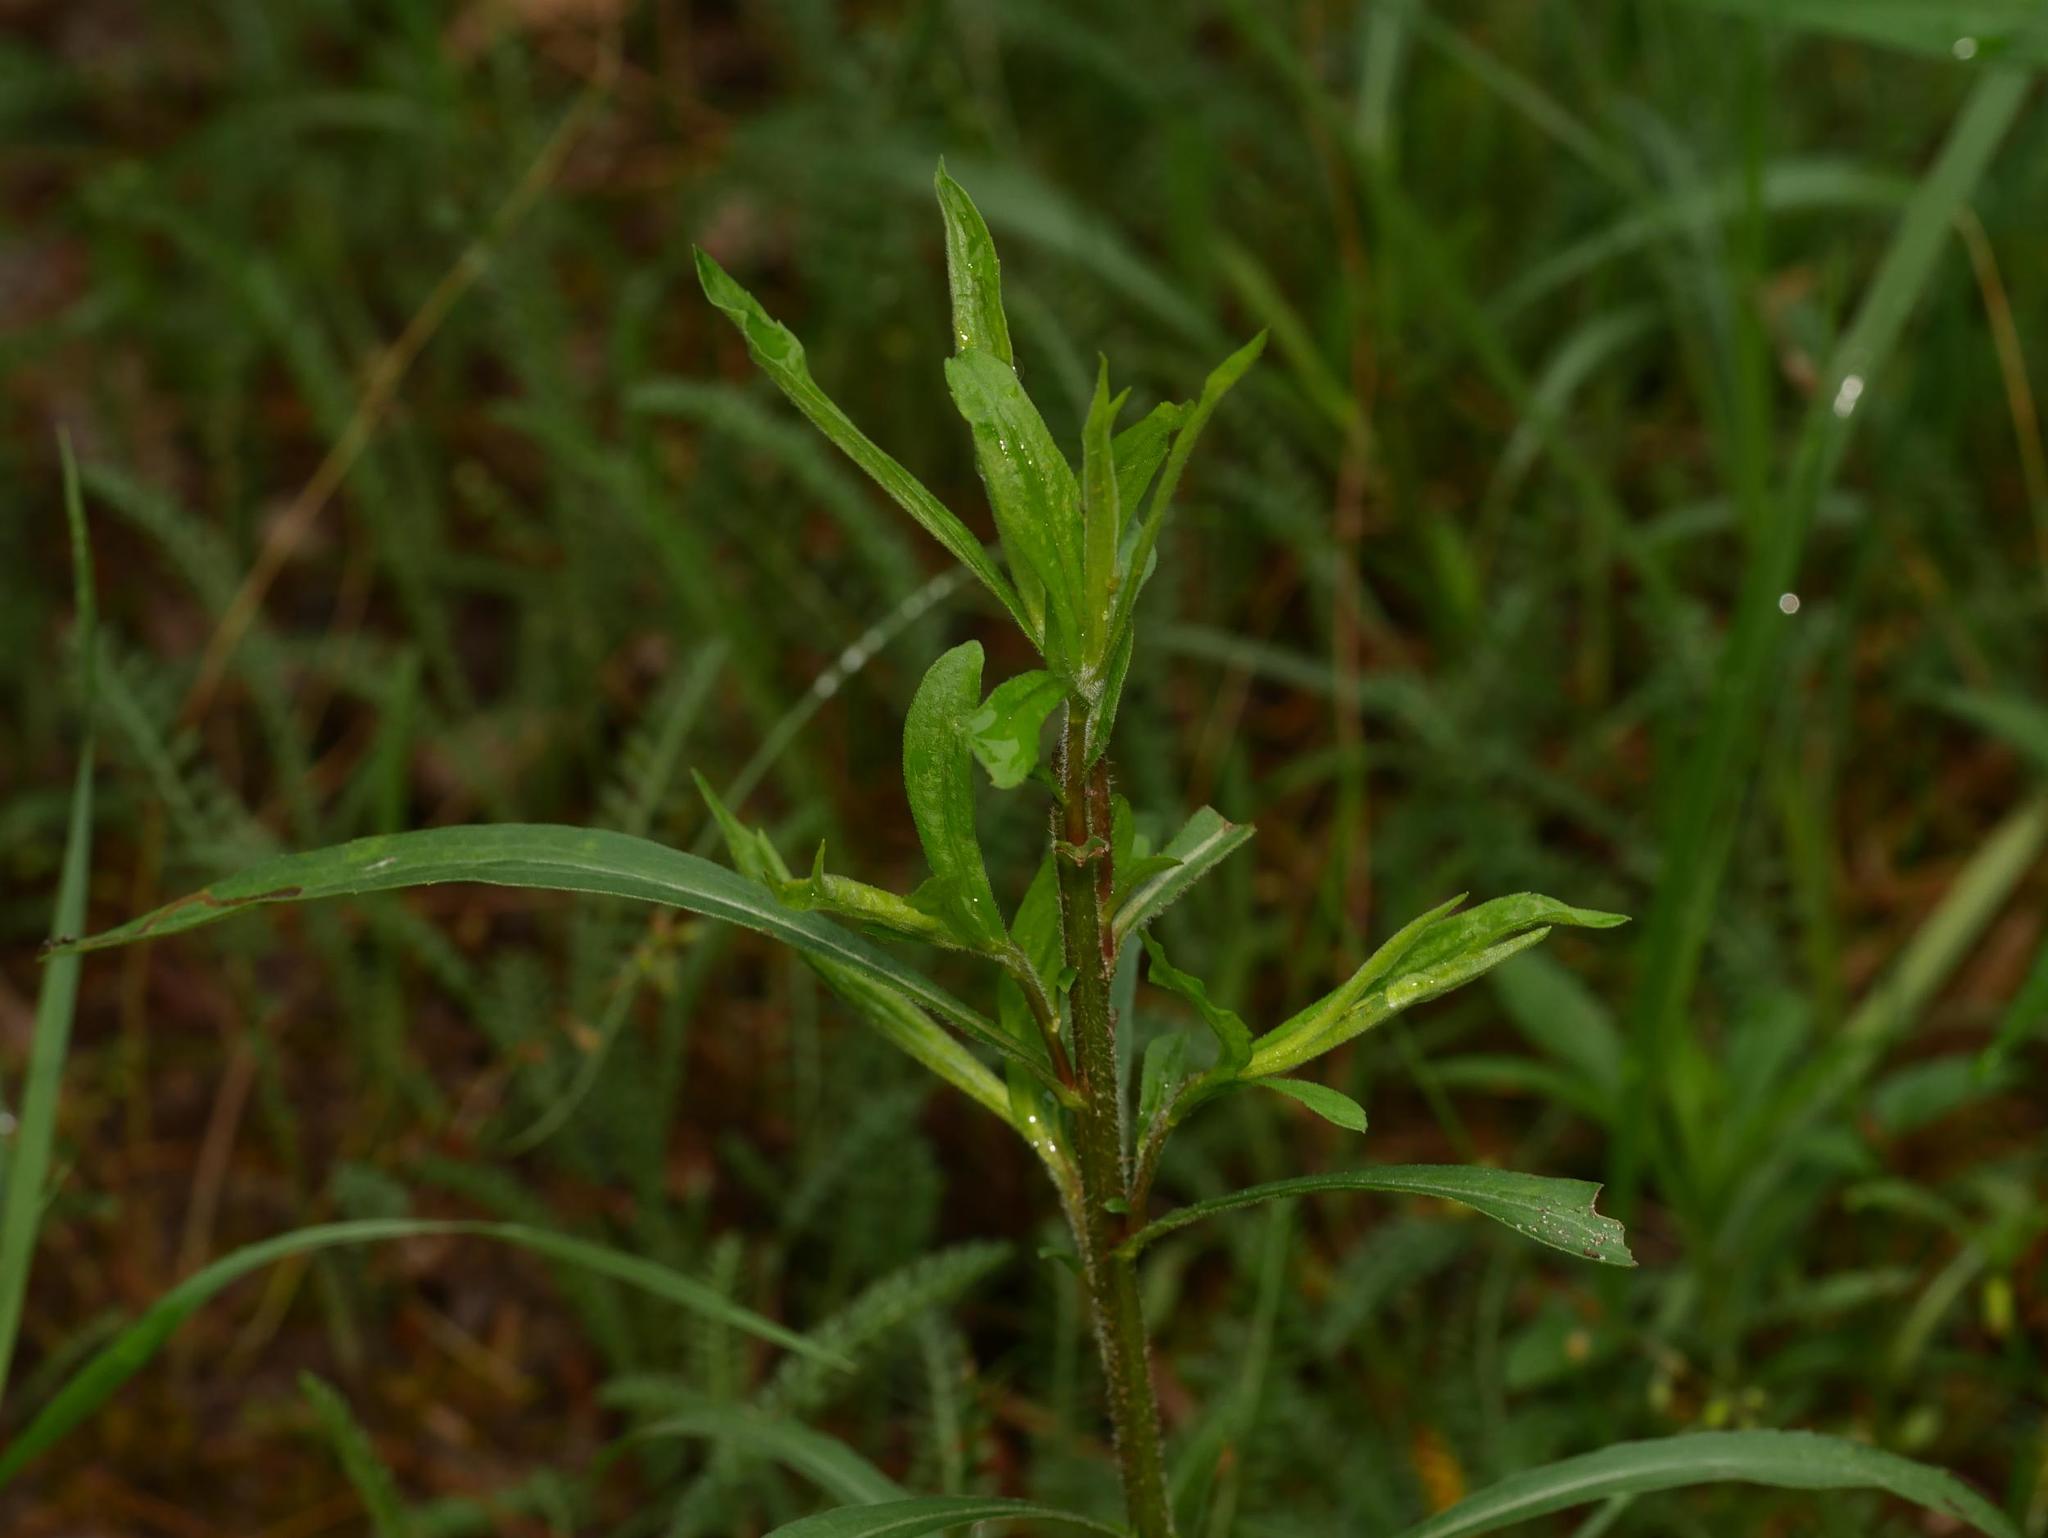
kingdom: Plantae
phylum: Tracheophyta
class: Magnoliopsida
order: Asterales
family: Asteraceae
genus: Solidago
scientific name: Solidago canadensis
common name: Canada goldenrod
